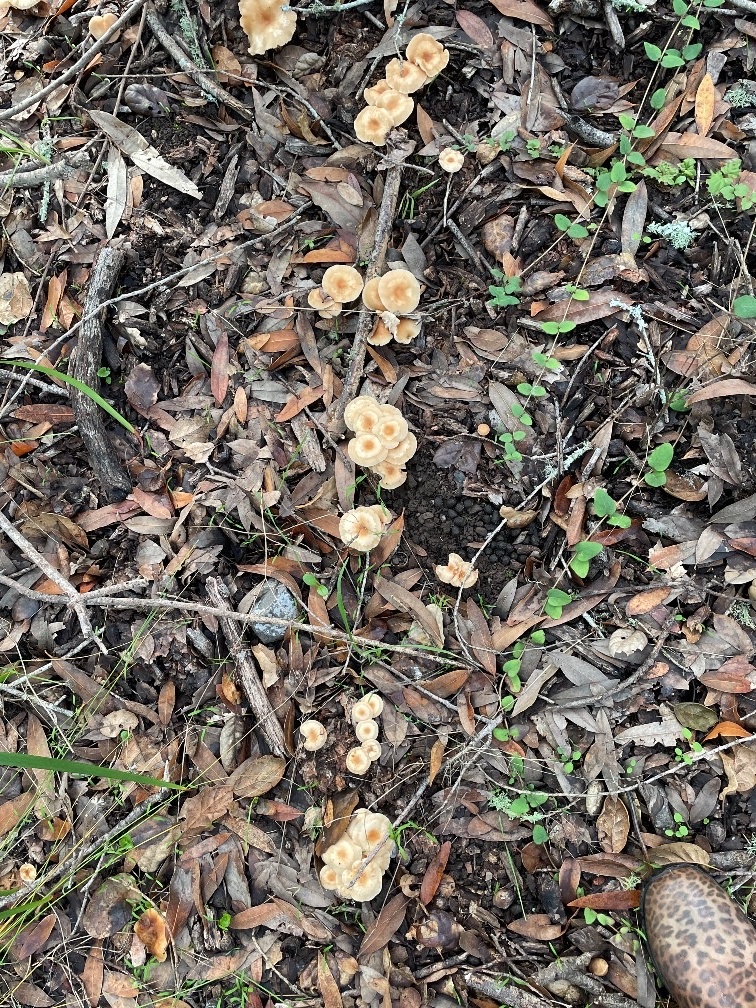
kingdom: Fungi
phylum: Basidiomycota
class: Agaricomycetes
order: Agaricales
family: Omphalotaceae
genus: Gymnopus
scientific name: Gymnopus dryophilus
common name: Penny top
